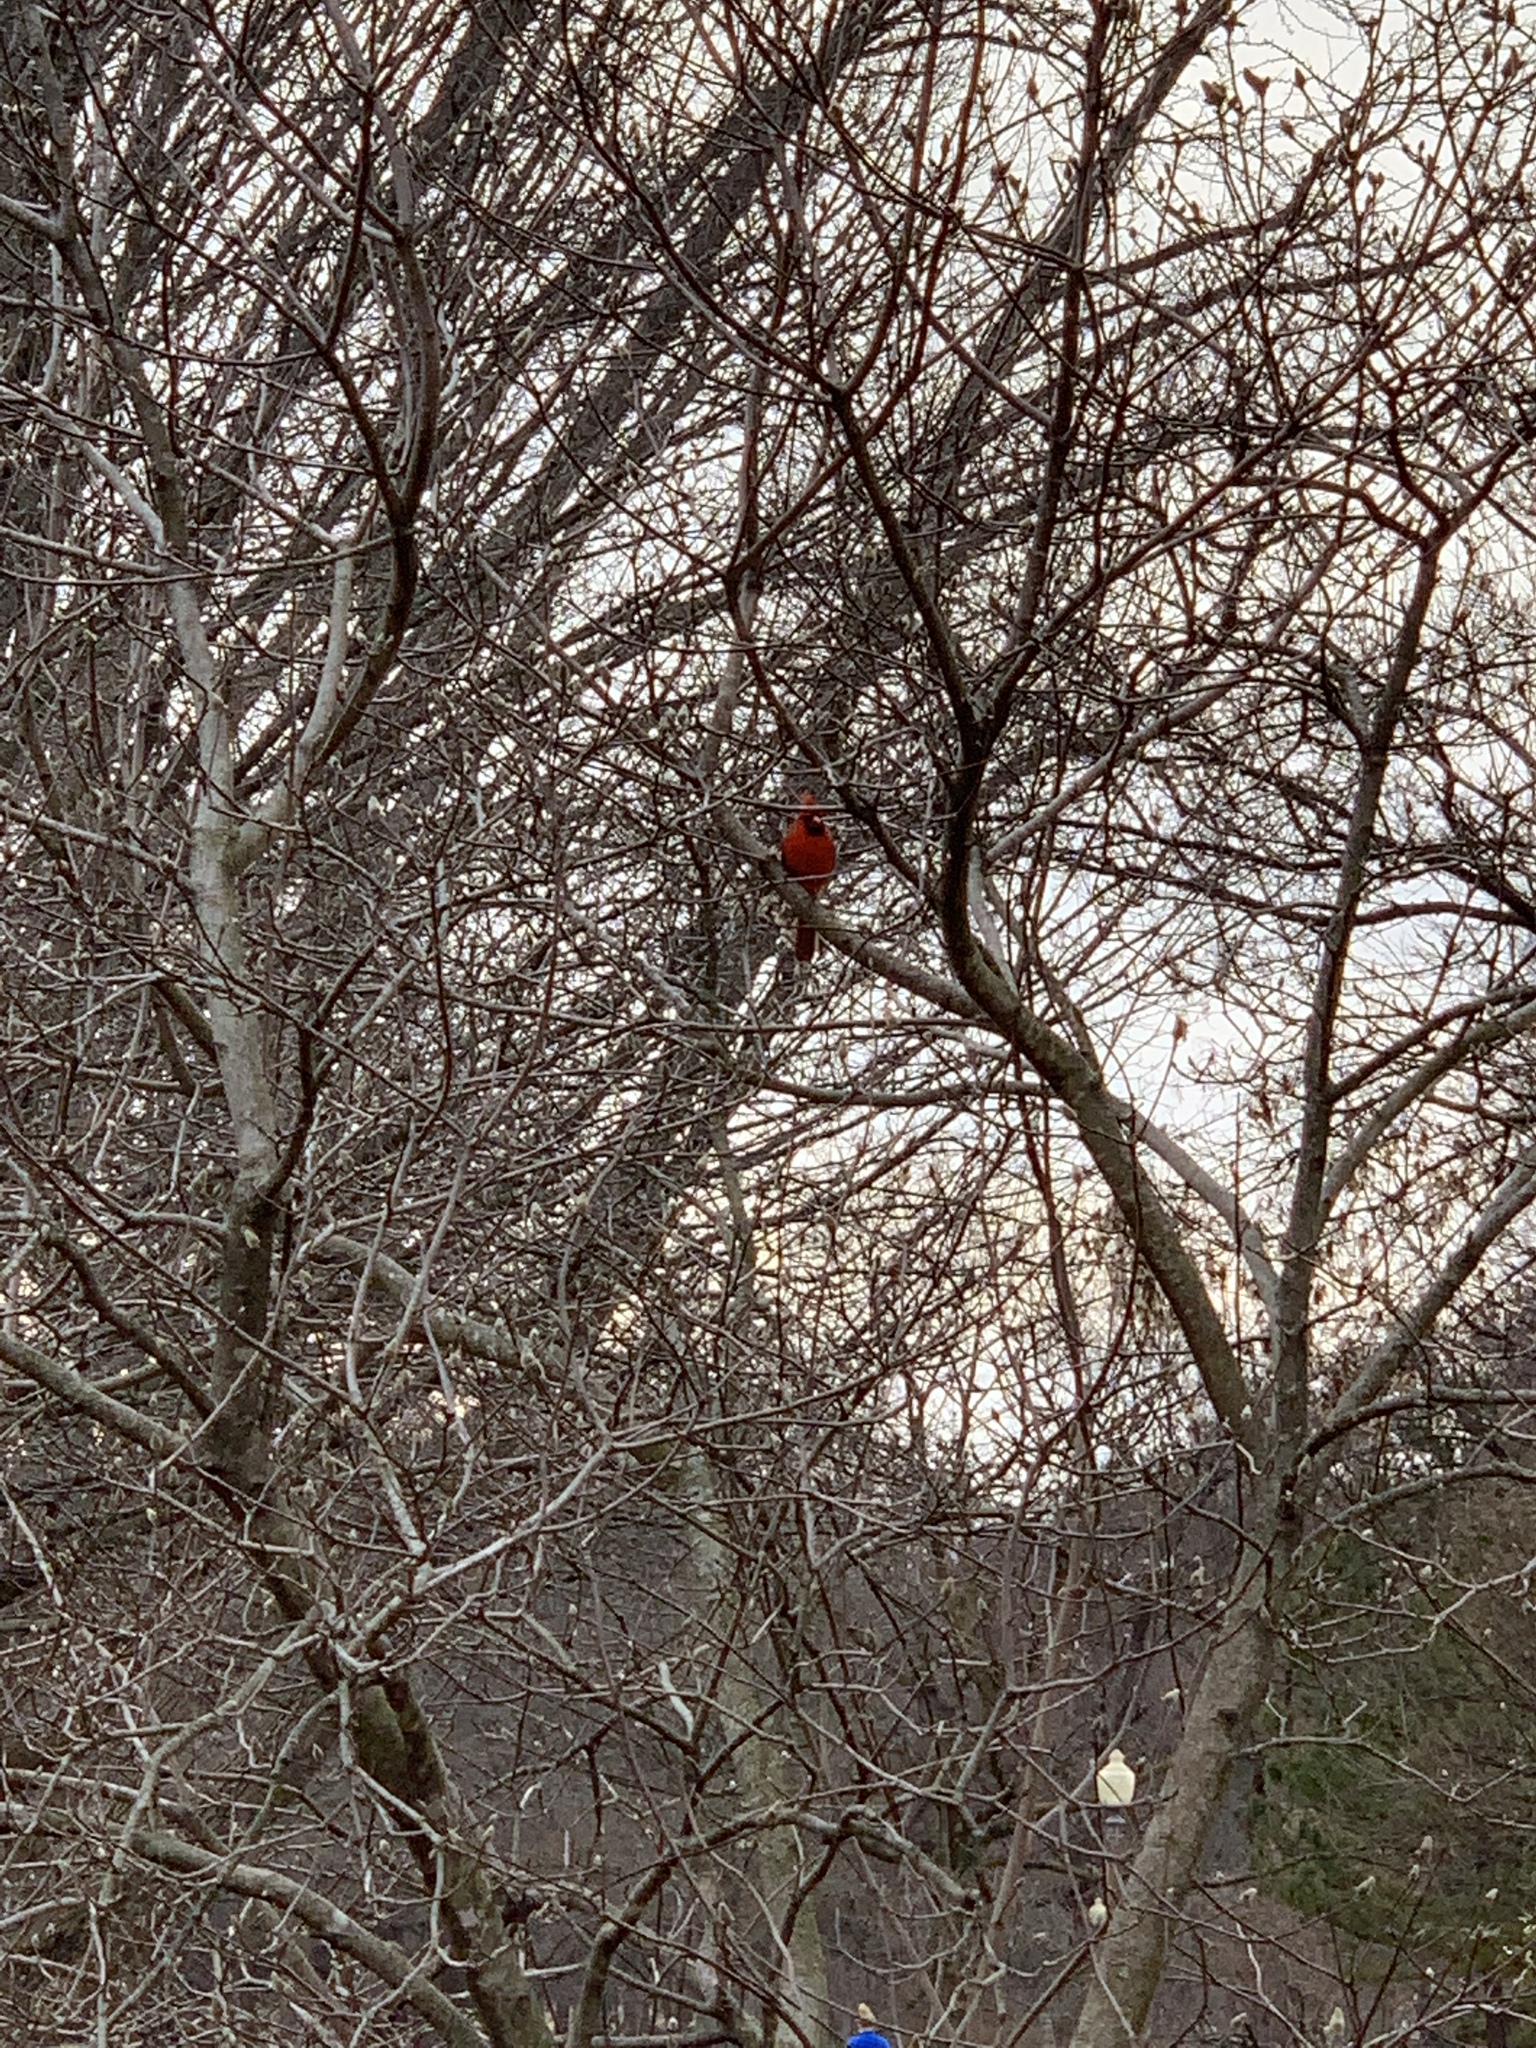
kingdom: Animalia
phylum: Chordata
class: Aves
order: Passeriformes
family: Cardinalidae
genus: Cardinalis
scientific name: Cardinalis cardinalis
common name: Northern cardinal
